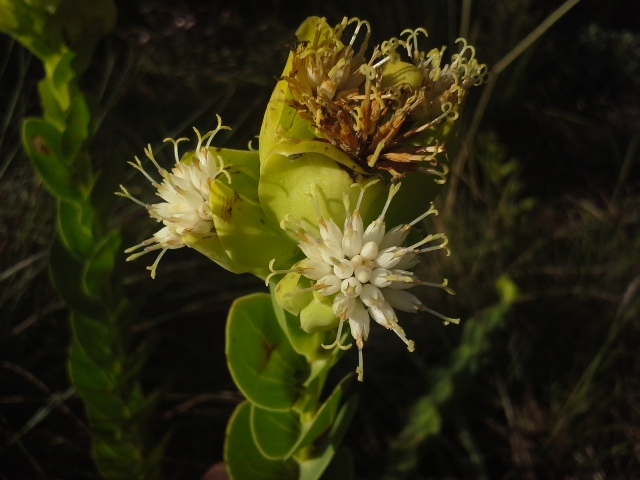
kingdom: Plantae
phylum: Tracheophyta
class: Magnoliopsida
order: Asterales
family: Asteraceae
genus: Lopholaena
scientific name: Lopholaena disticha
